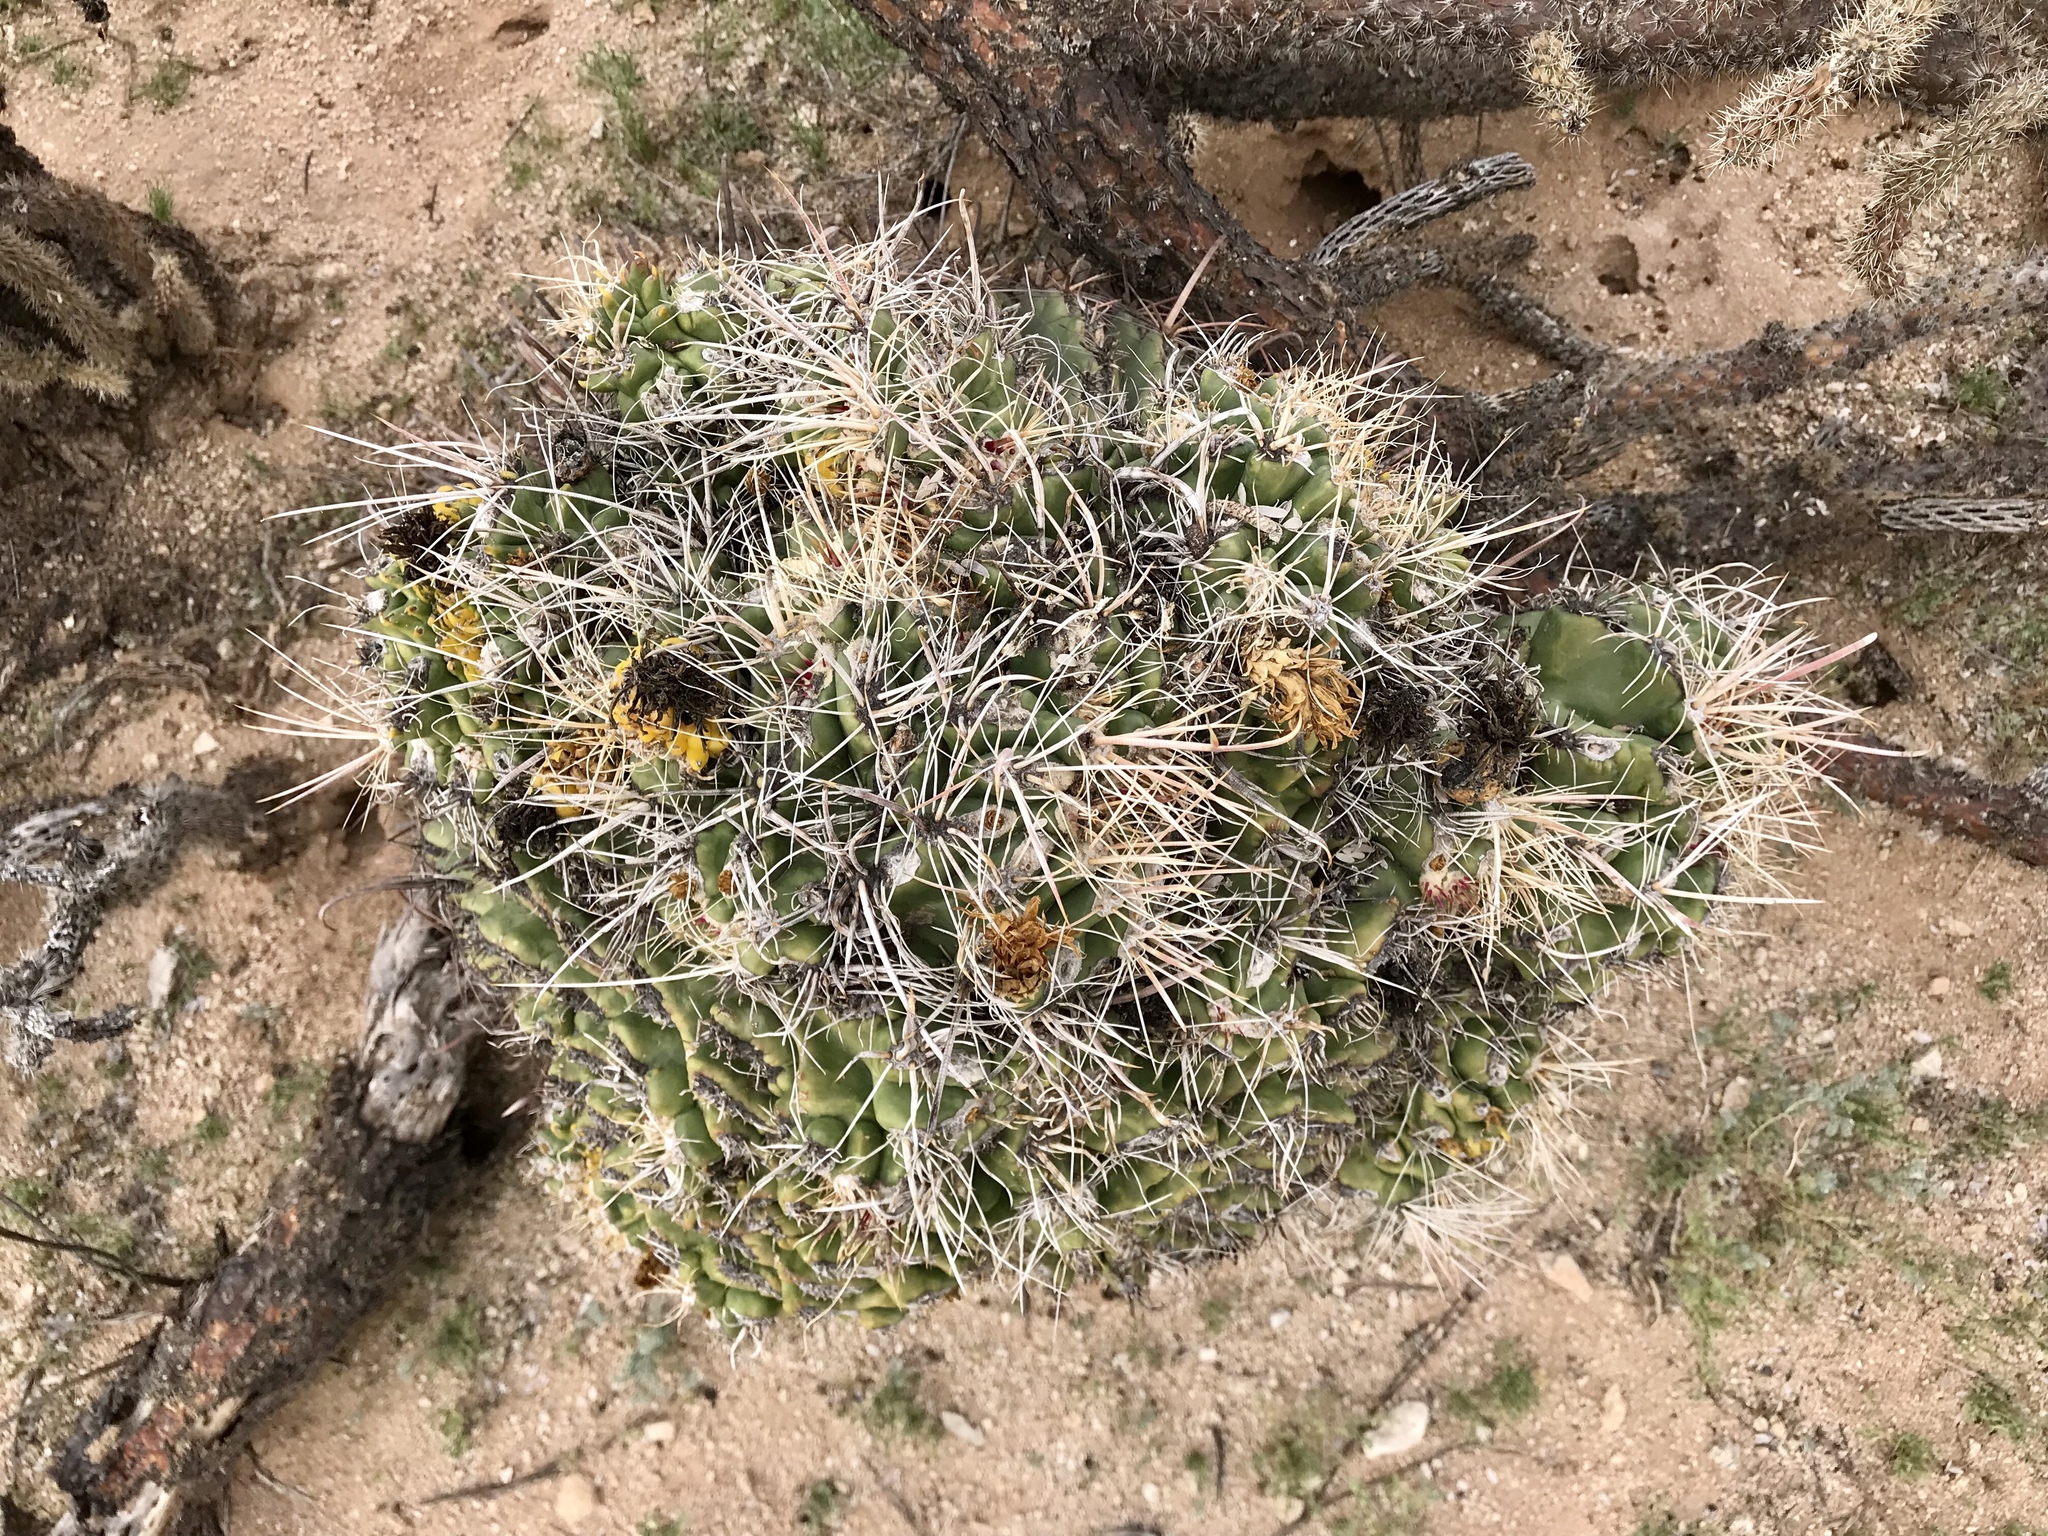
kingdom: Plantae
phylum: Tracheophyta
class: Magnoliopsida
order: Caryophyllales
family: Cactaceae
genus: Ferocactus
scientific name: Ferocactus wislizeni
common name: Candy barrel cactus
